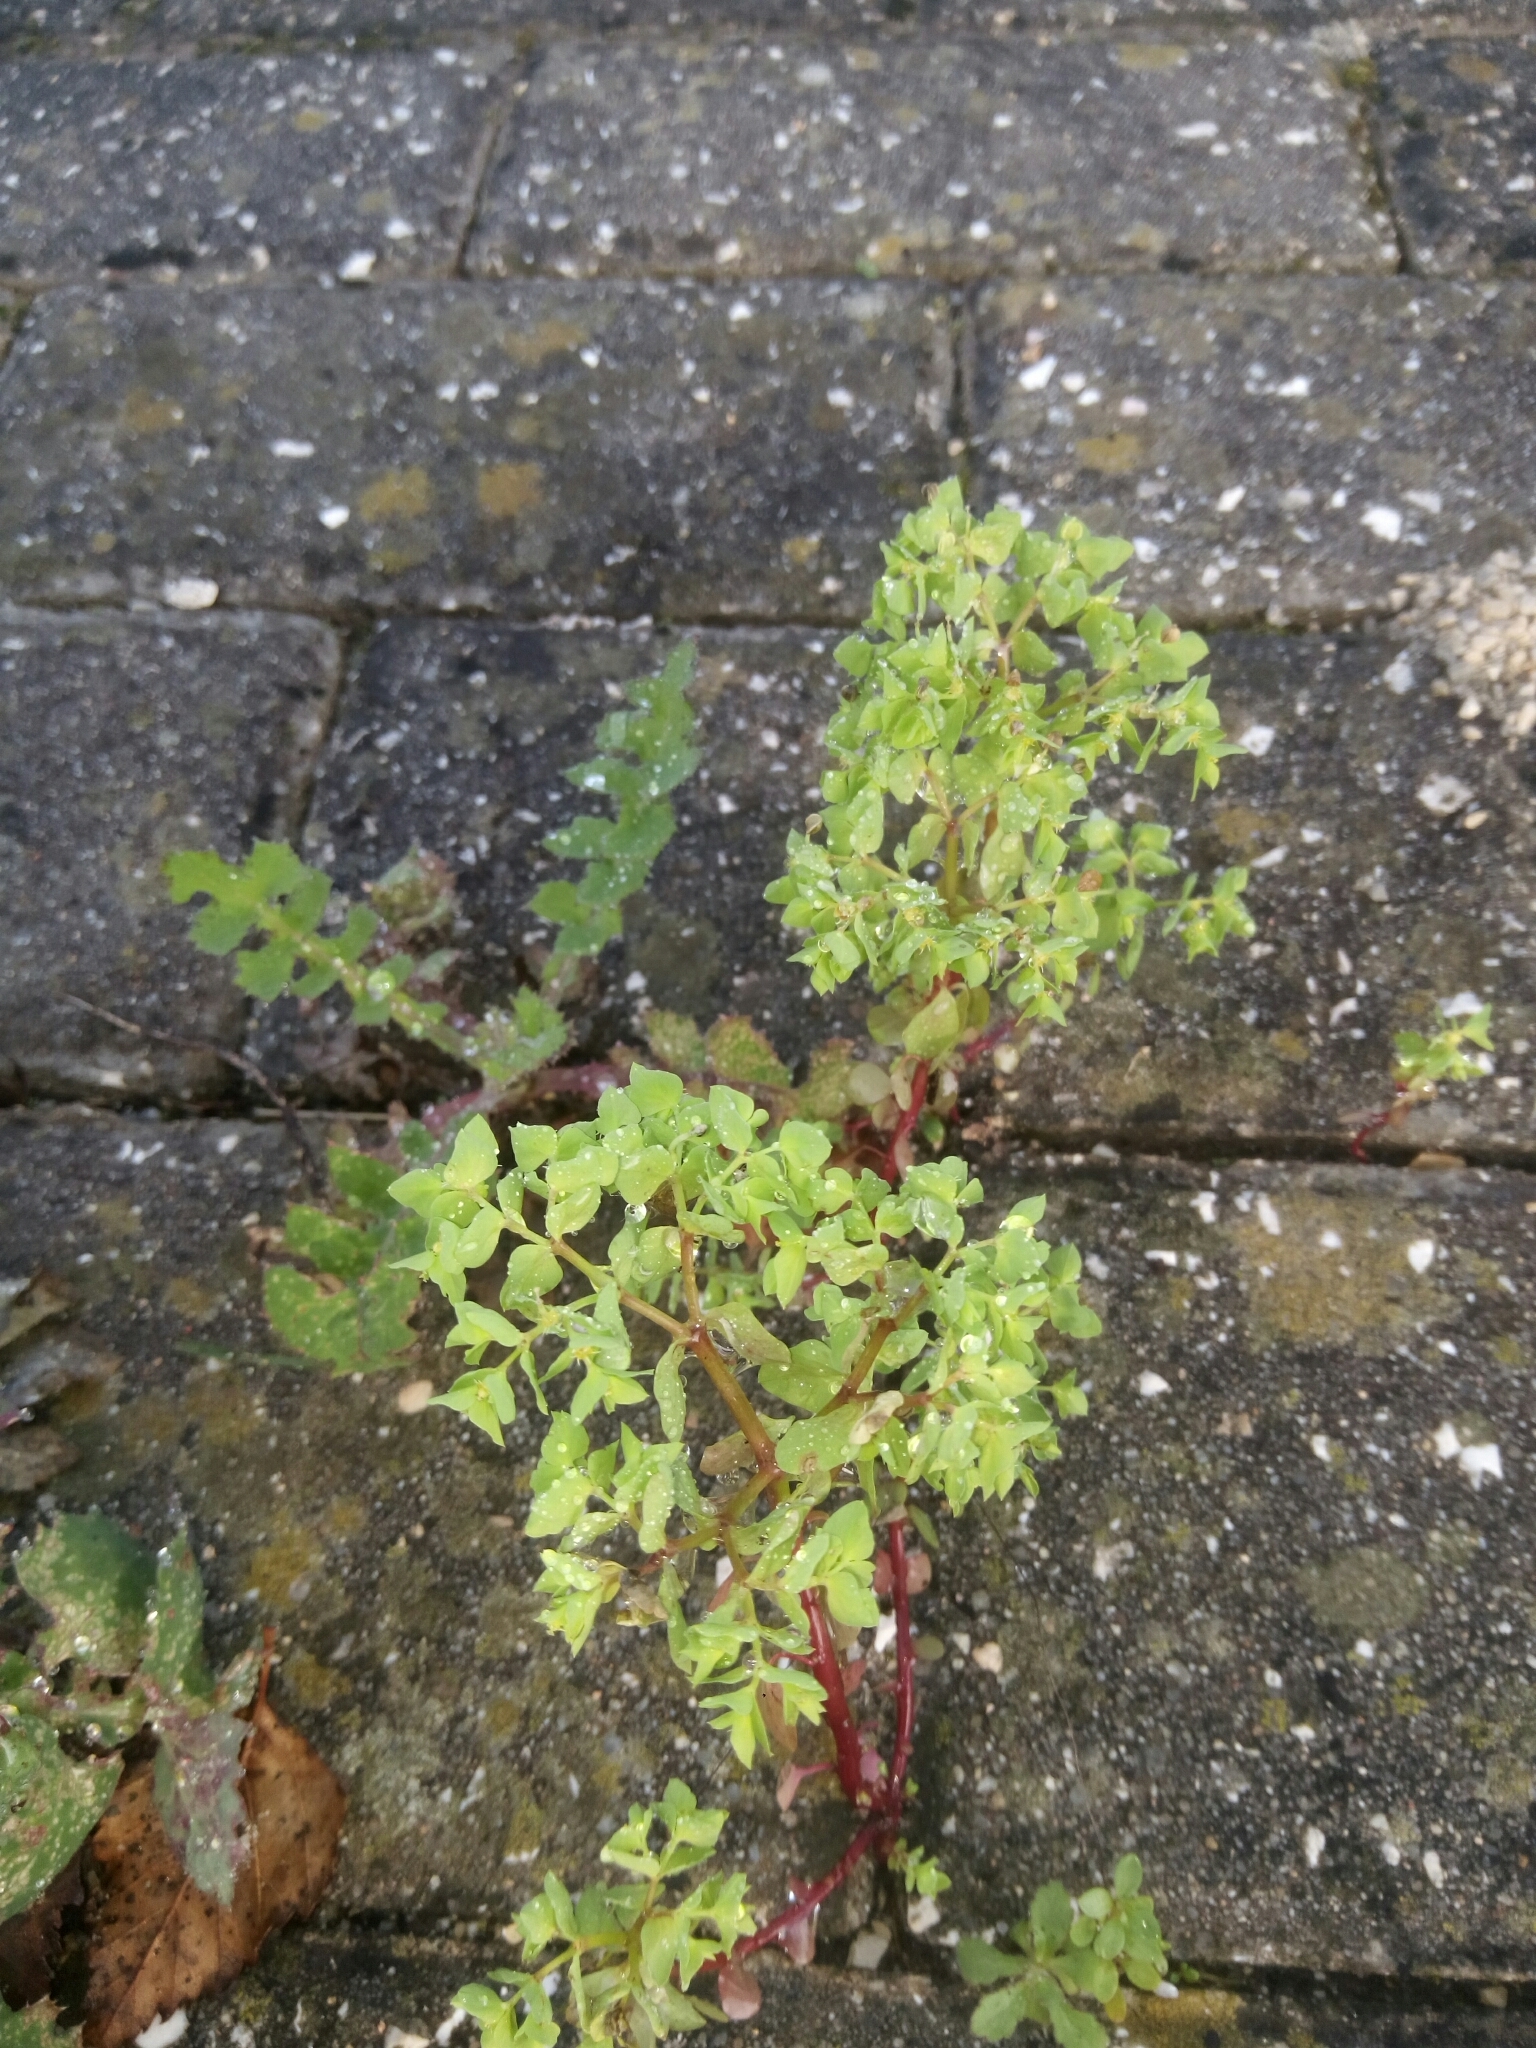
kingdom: Plantae
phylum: Tracheophyta
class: Magnoliopsida
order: Malpighiales
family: Euphorbiaceae
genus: Euphorbia
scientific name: Euphorbia peplus
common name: Petty spurge
